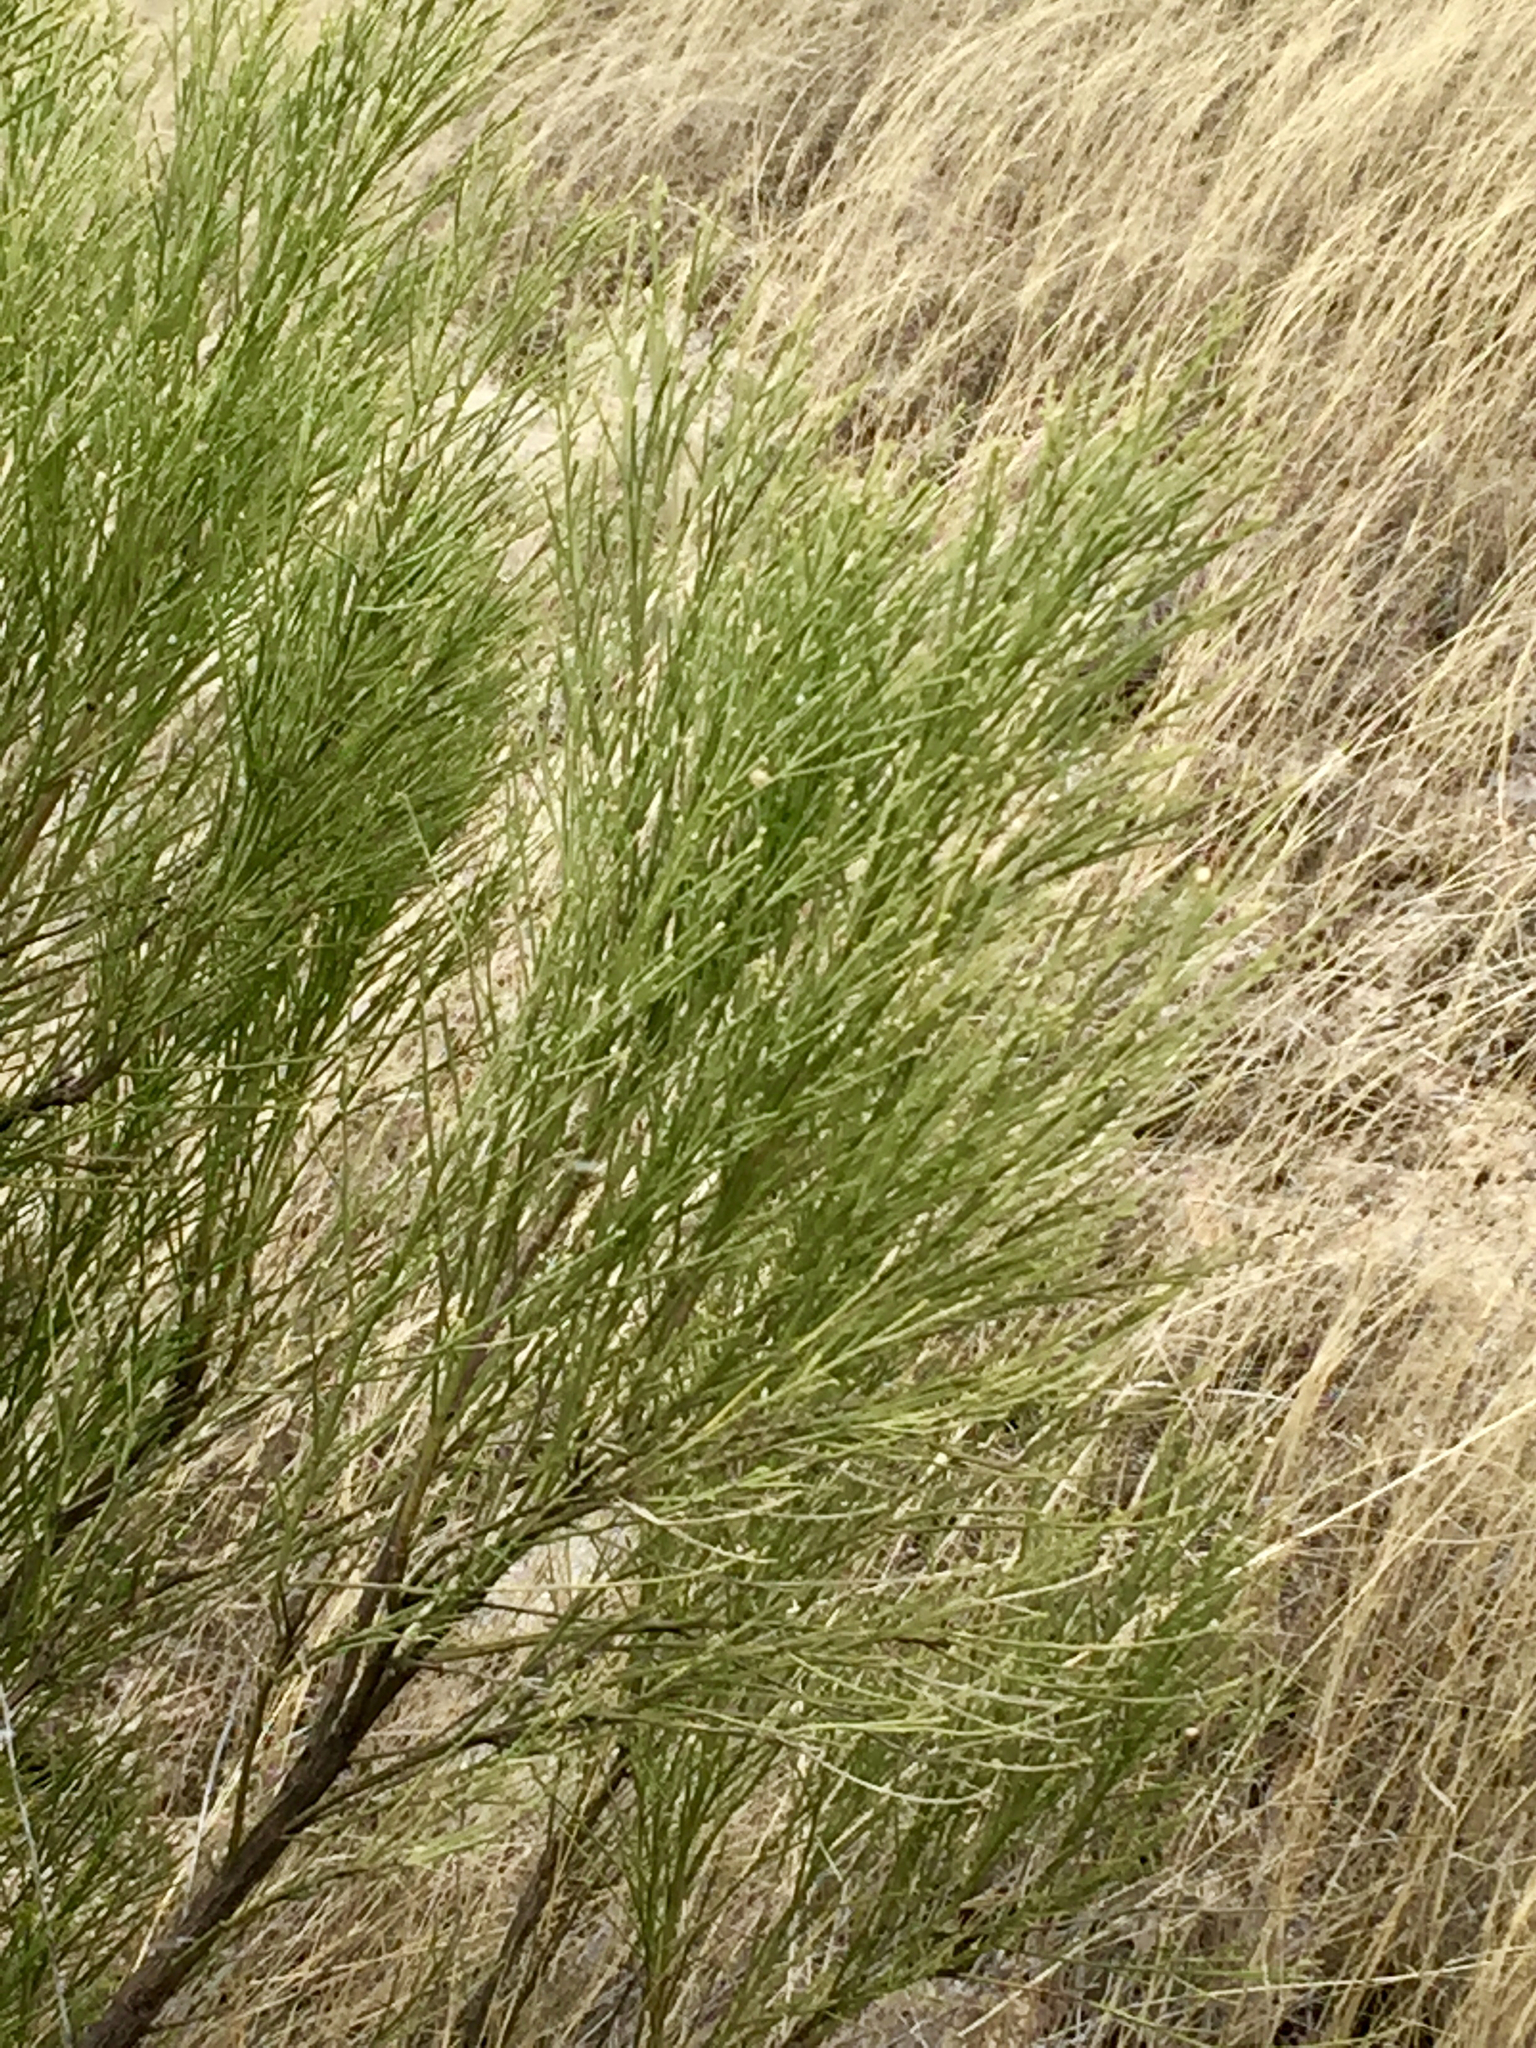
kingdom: Plantae
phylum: Tracheophyta
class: Magnoliopsida
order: Asterales
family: Asteraceae
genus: Baccharis
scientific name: Baccharis sarothroides
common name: Desert-broom
